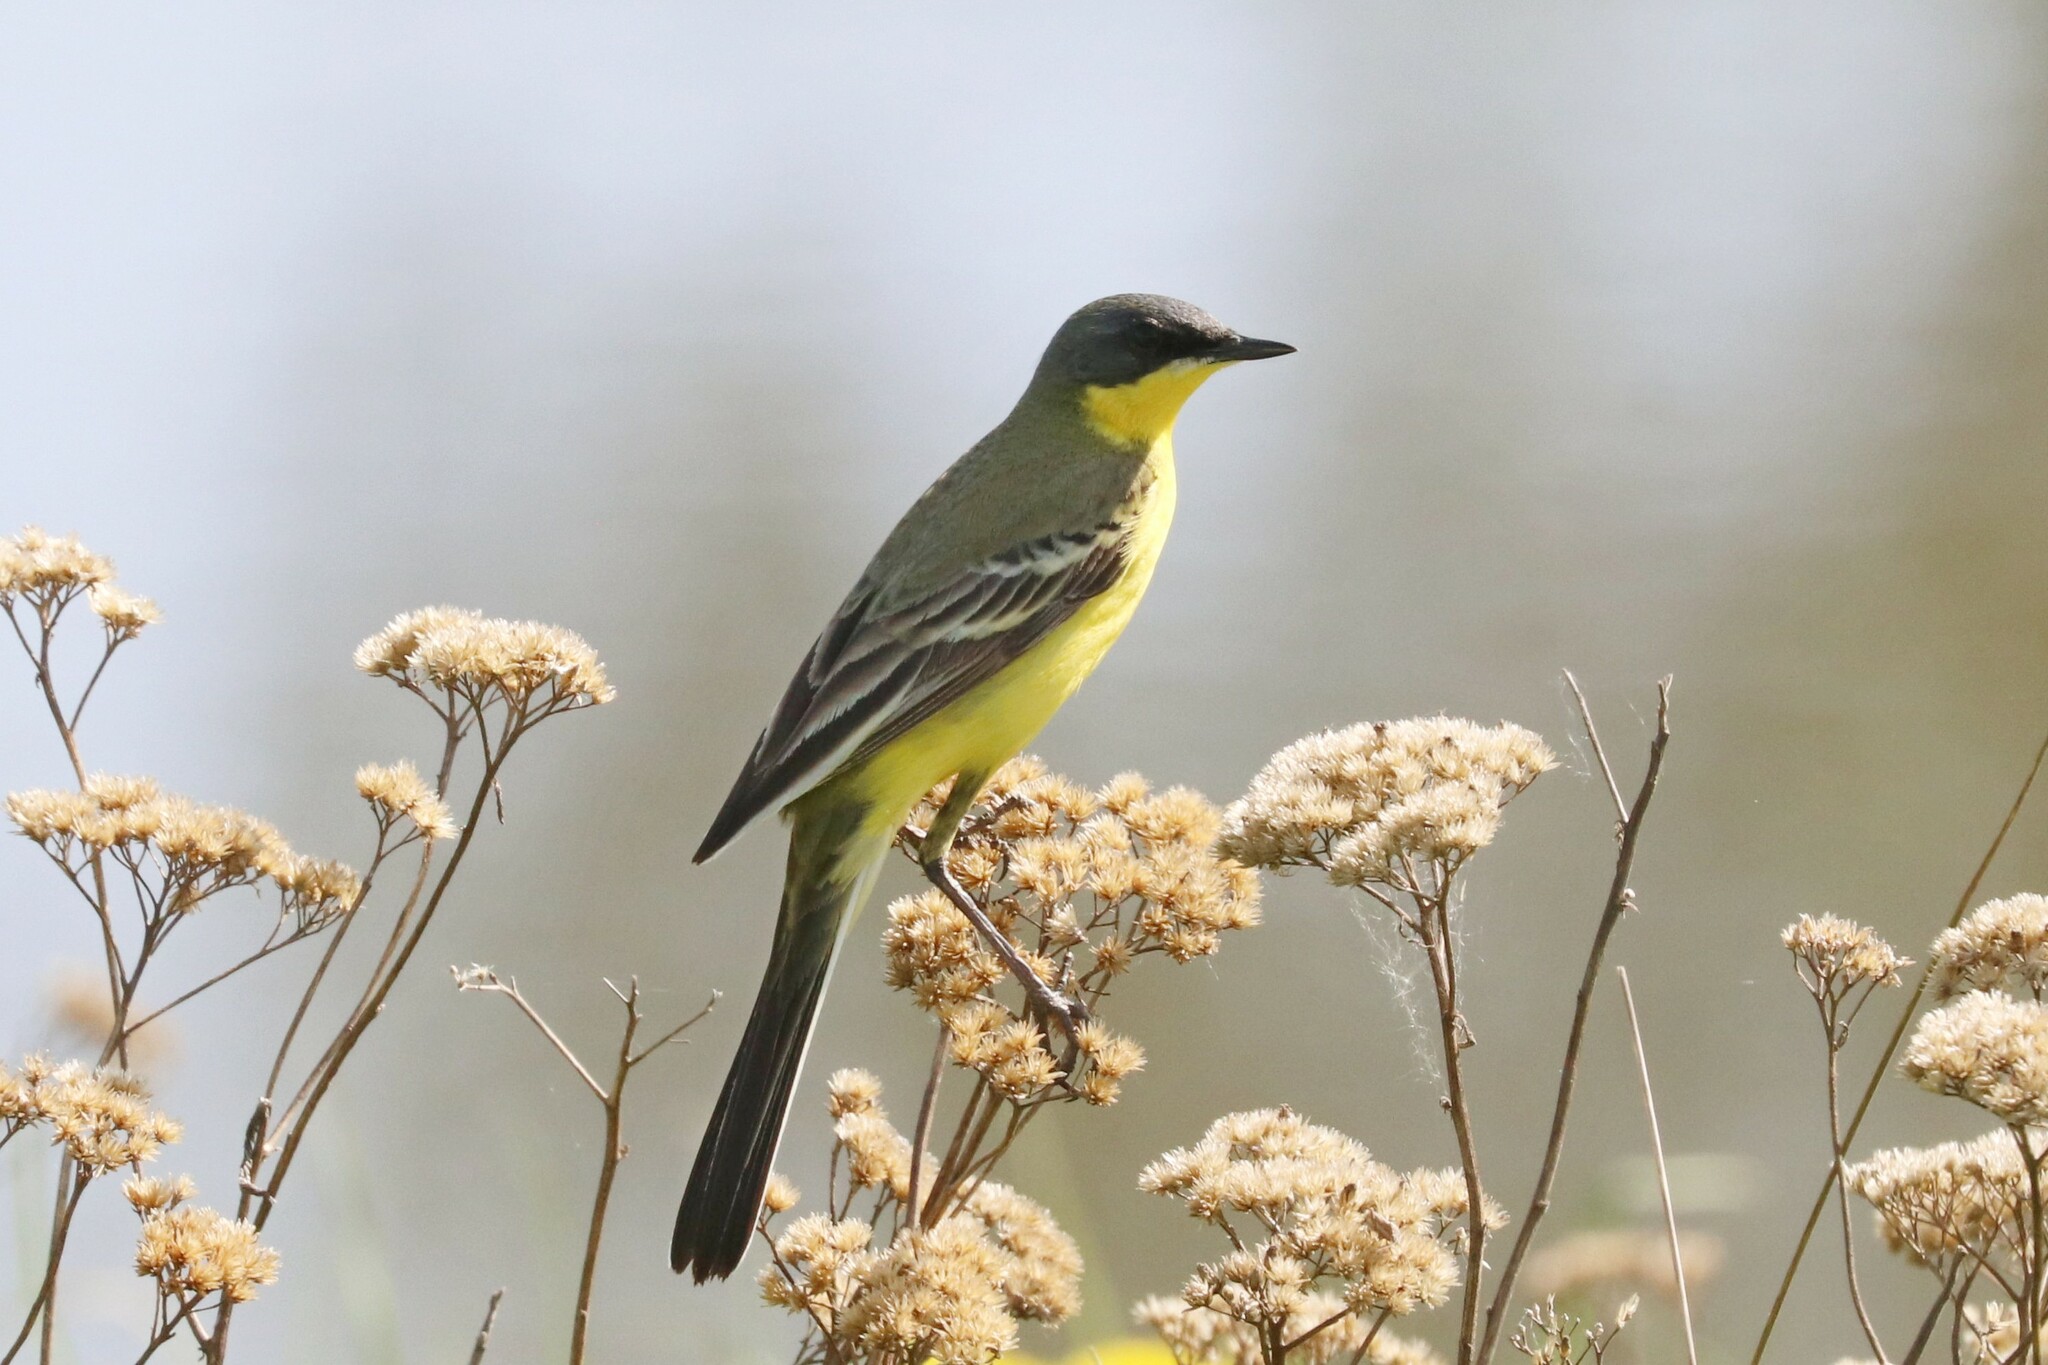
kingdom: Animalia
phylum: Chordata
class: Aves
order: Passeriformes
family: Motacillidae
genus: Motacilla
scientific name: Motacilla flava
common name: Western yellow wagtail
